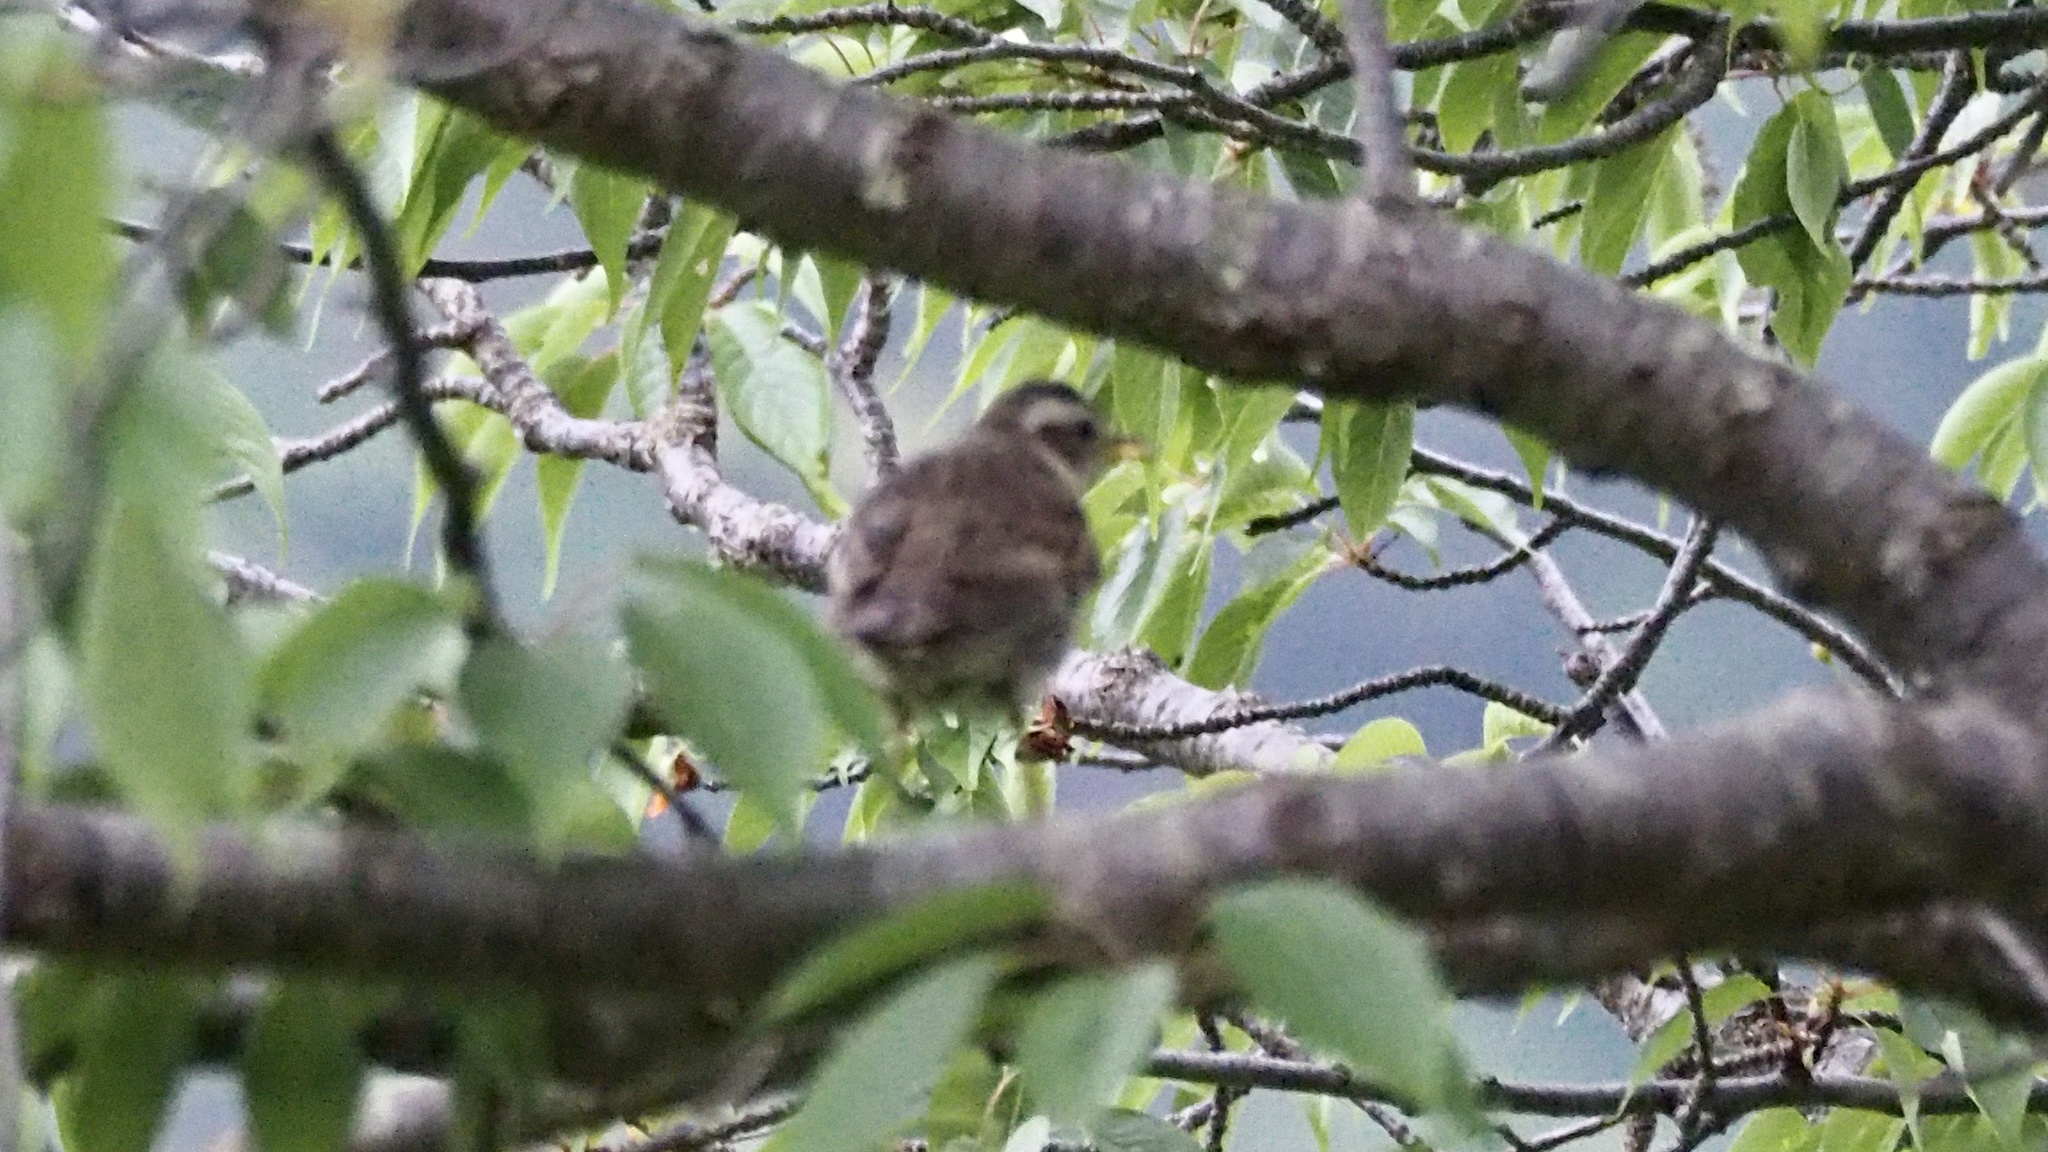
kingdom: Animalia
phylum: Chordata
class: Aves
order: Passeriformes
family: Turdidae
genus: Turdus
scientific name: Turdus eunomus
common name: Dusky thrush
